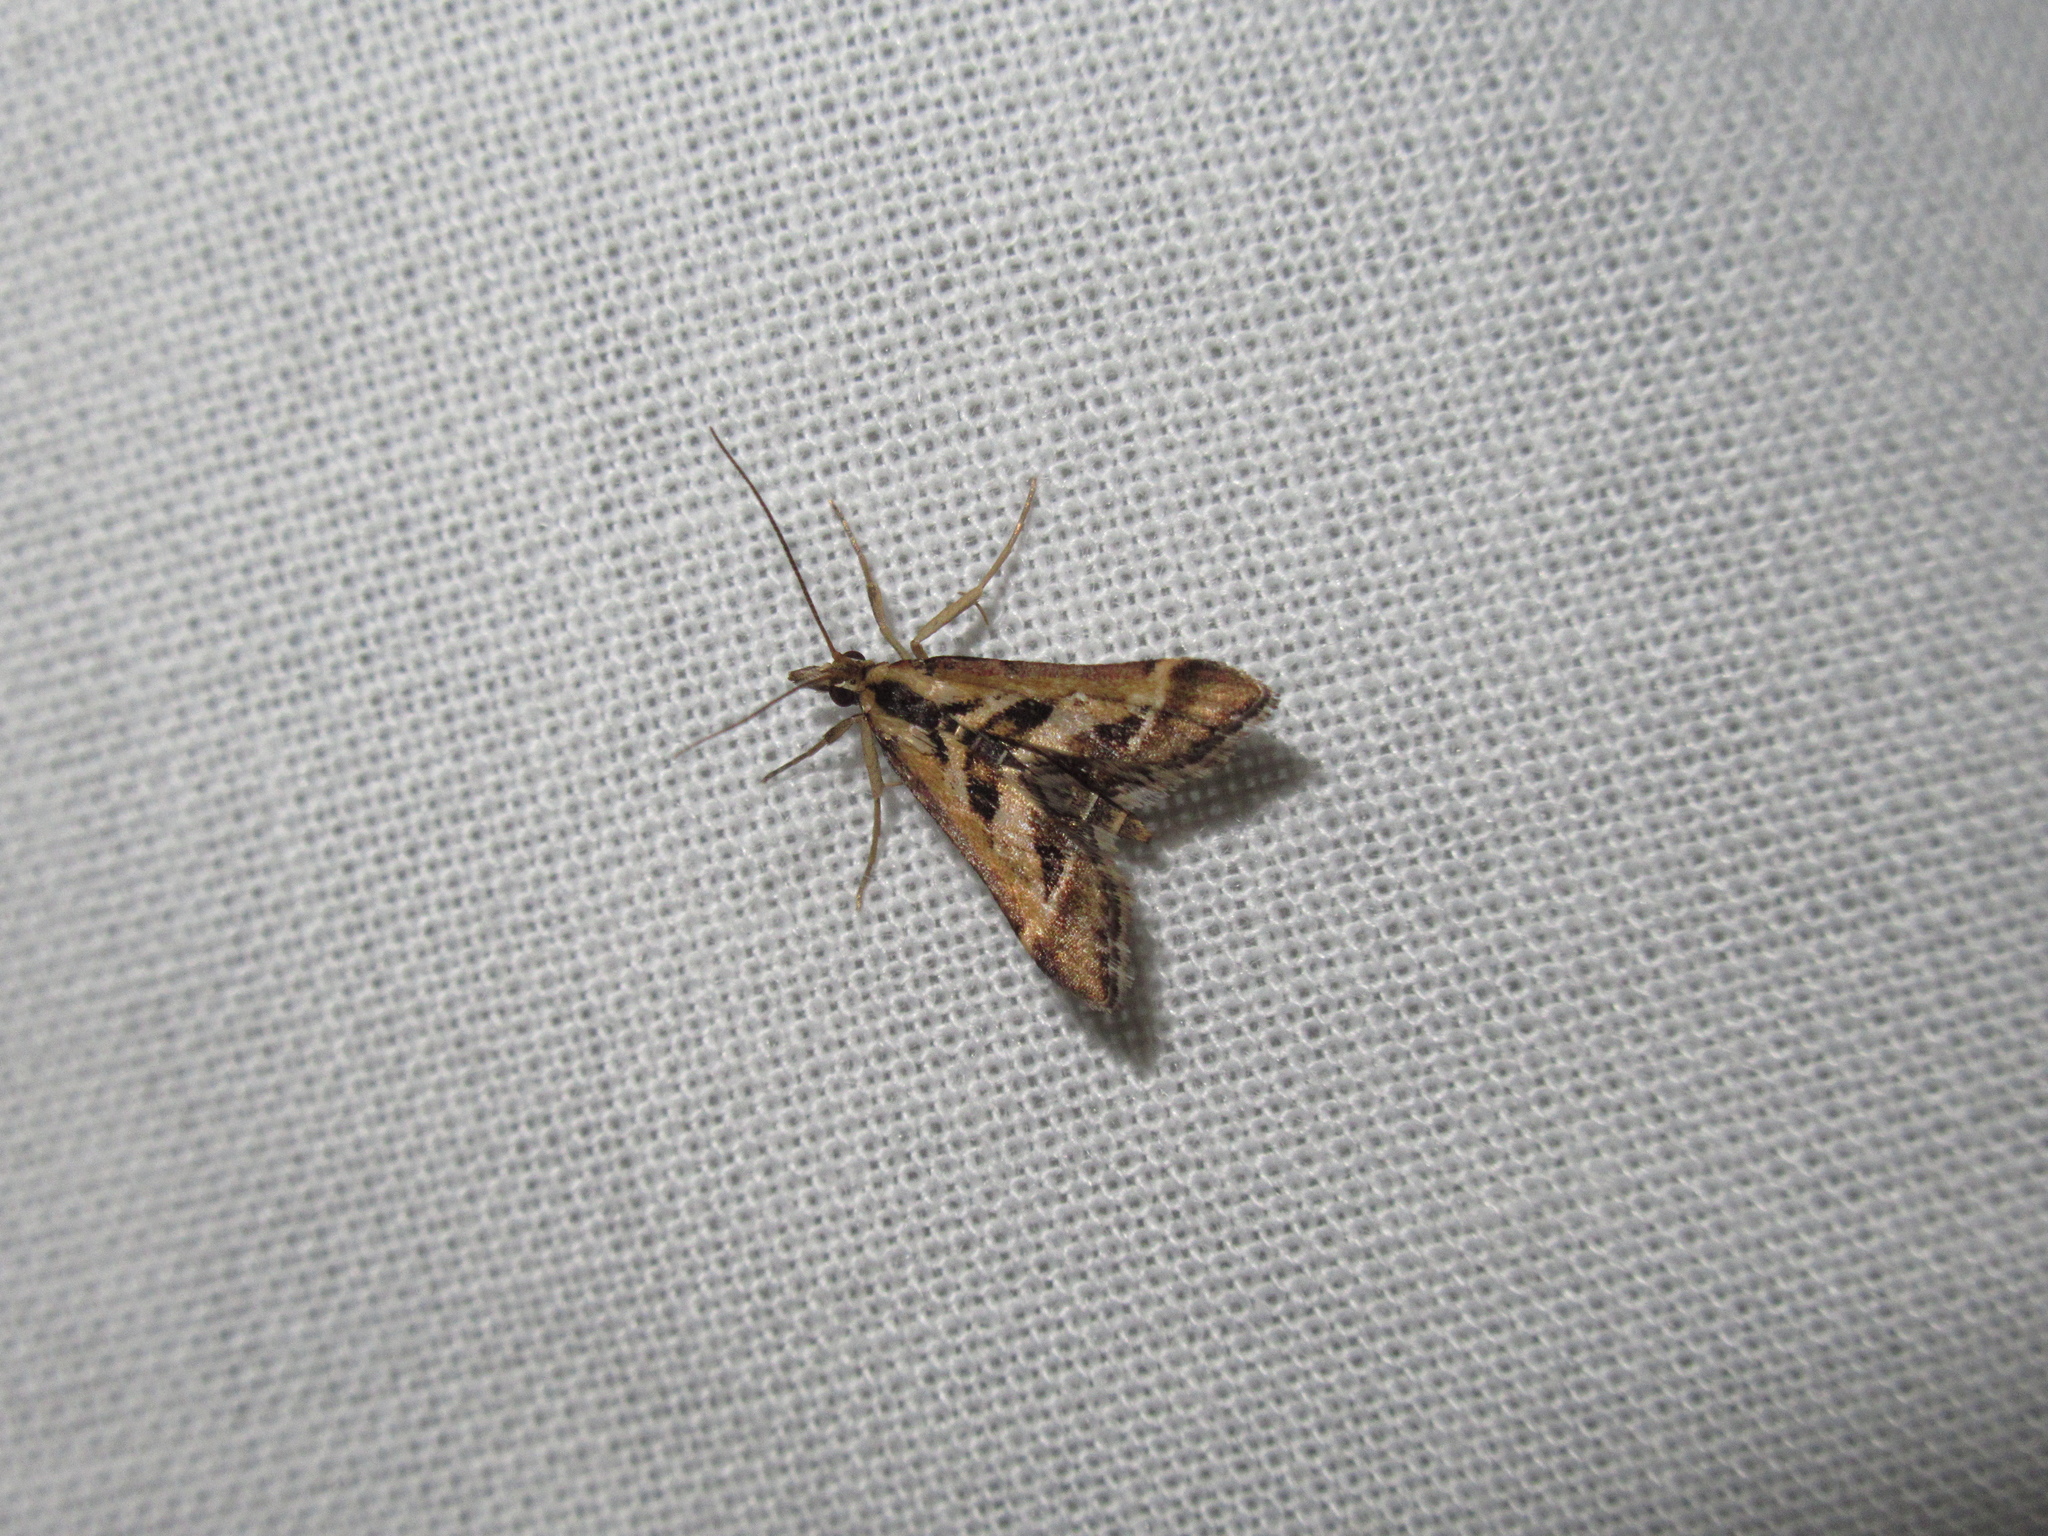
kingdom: Animalia
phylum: Arthropoda
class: Insecta
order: Lepidoptera
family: Crambidae
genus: Diasemia
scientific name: Diasemia grammalis
